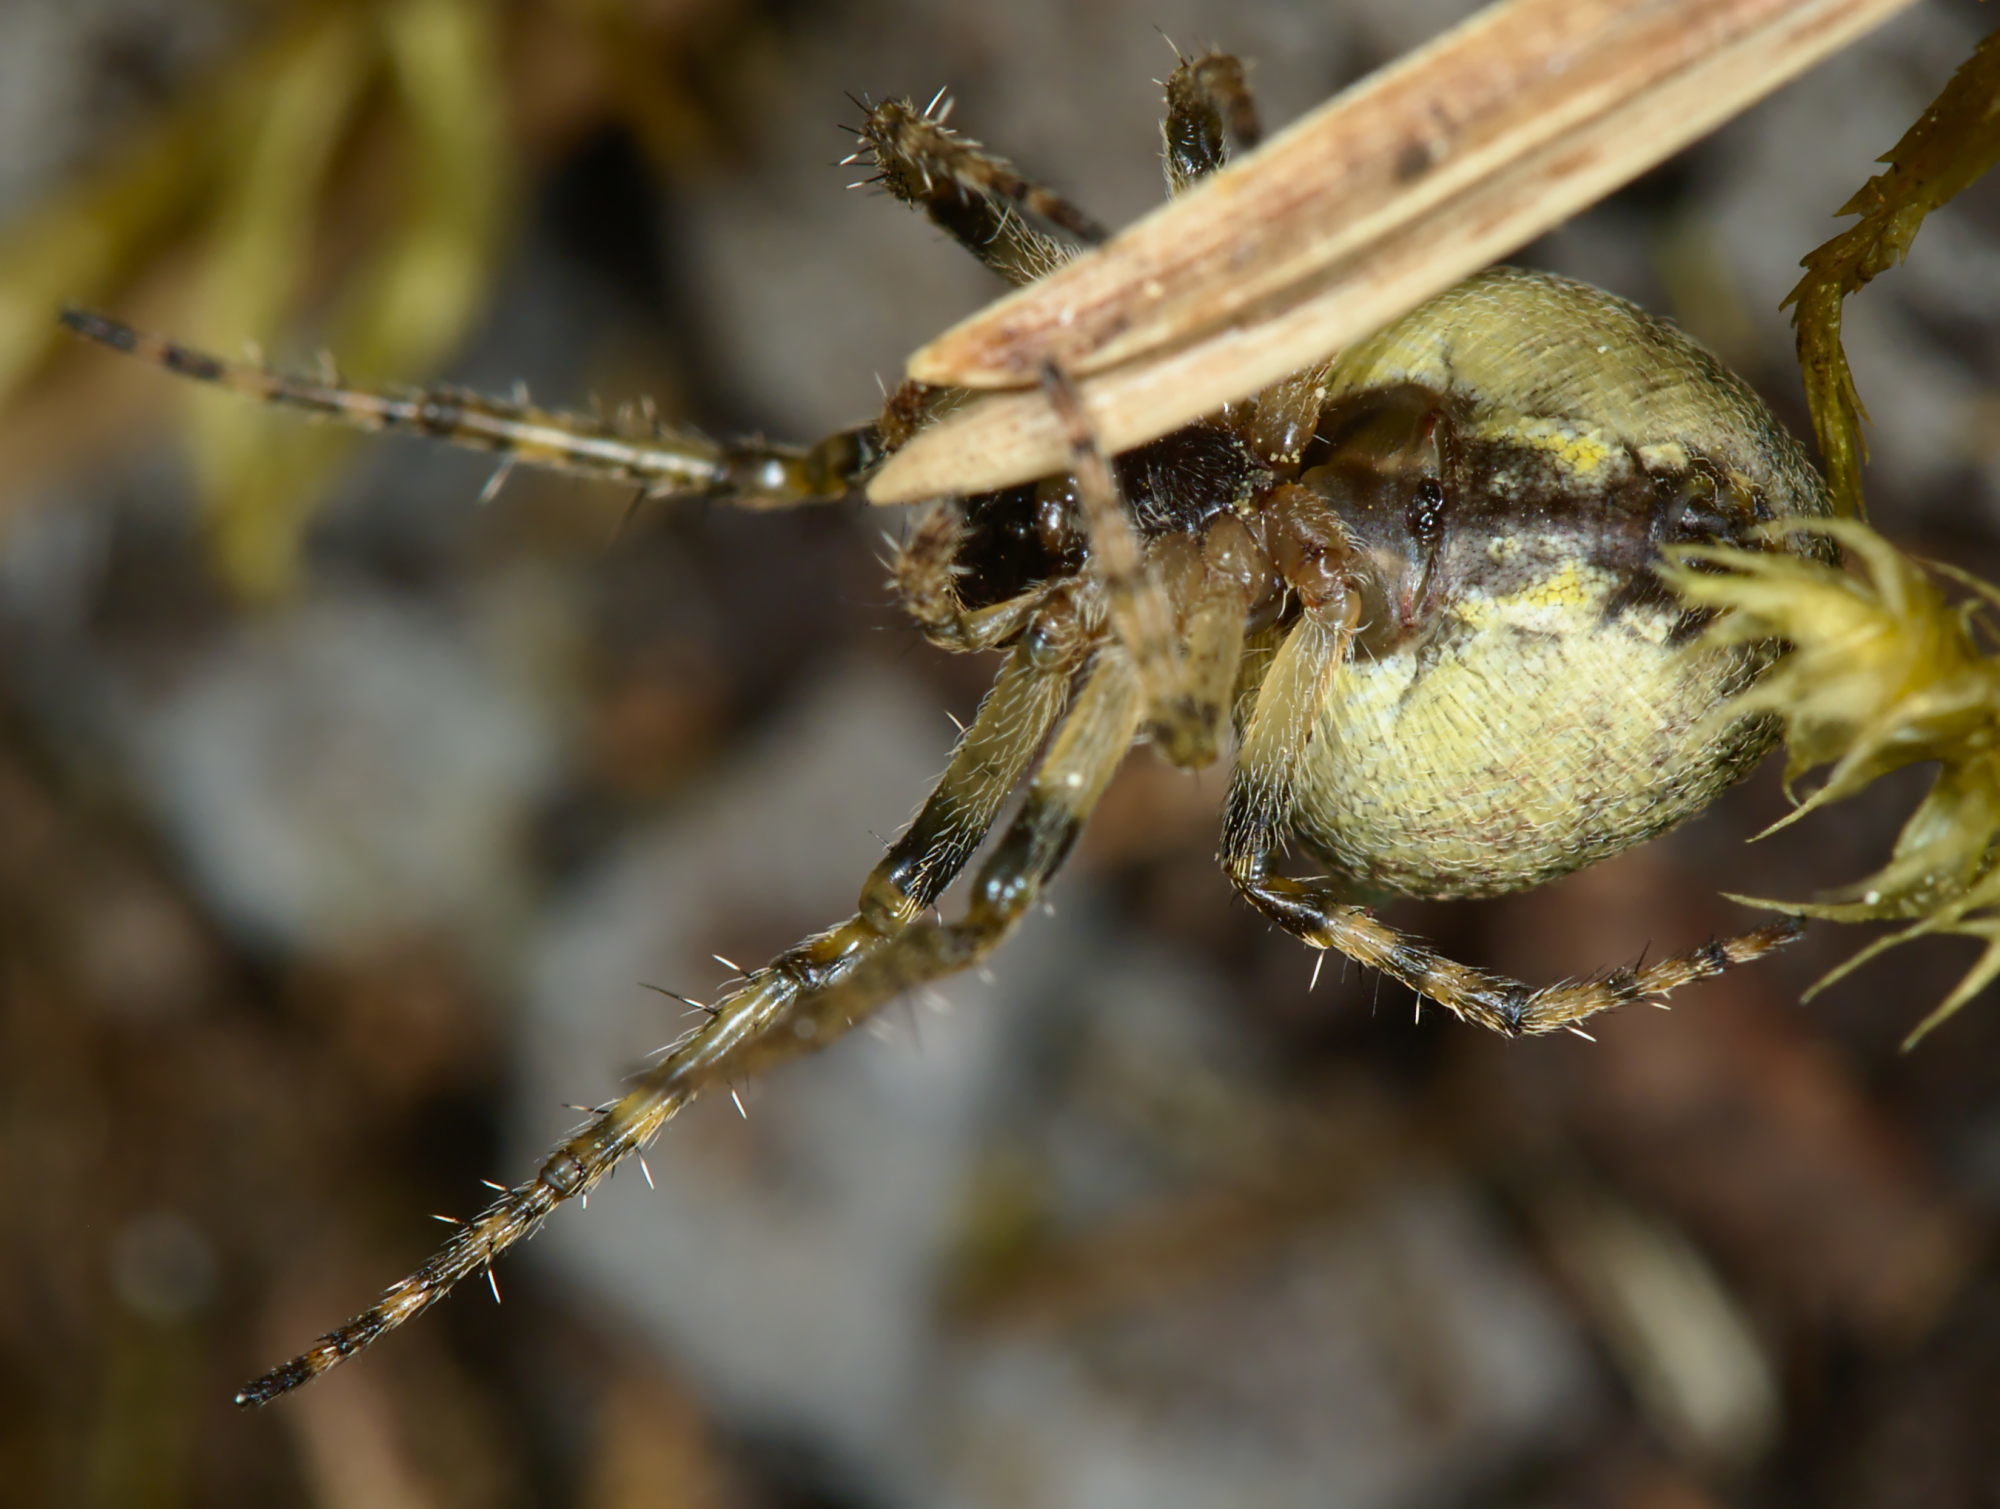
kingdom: Animalia
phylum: Arthropoda
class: Arachnida
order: Araneae
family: Araneidae
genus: Gibbaranea
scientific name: Gibbaranea gibbosa
